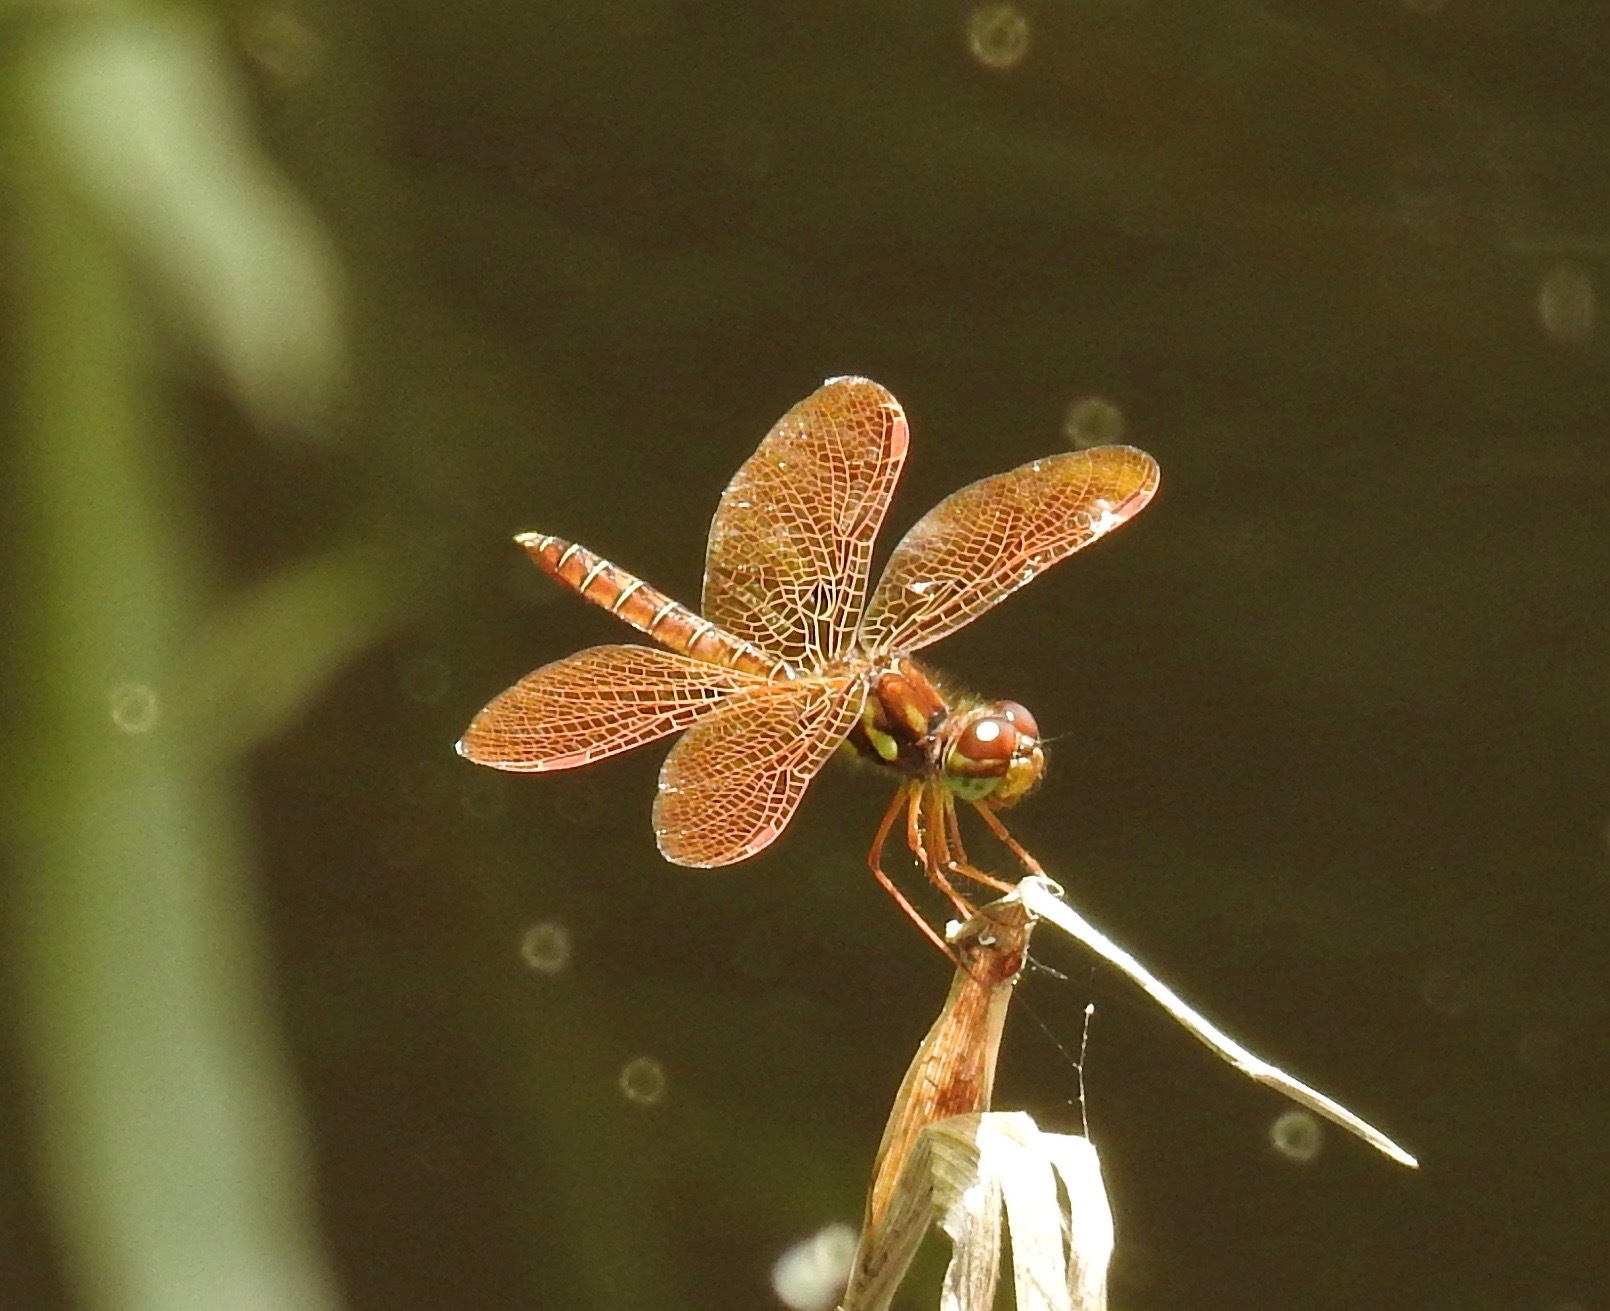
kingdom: Animalia
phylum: Arthropoda
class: Insecta
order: Odonata
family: Libellulidae
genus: Perithemis
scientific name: Perithemis tenera
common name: Eastern amberwing
